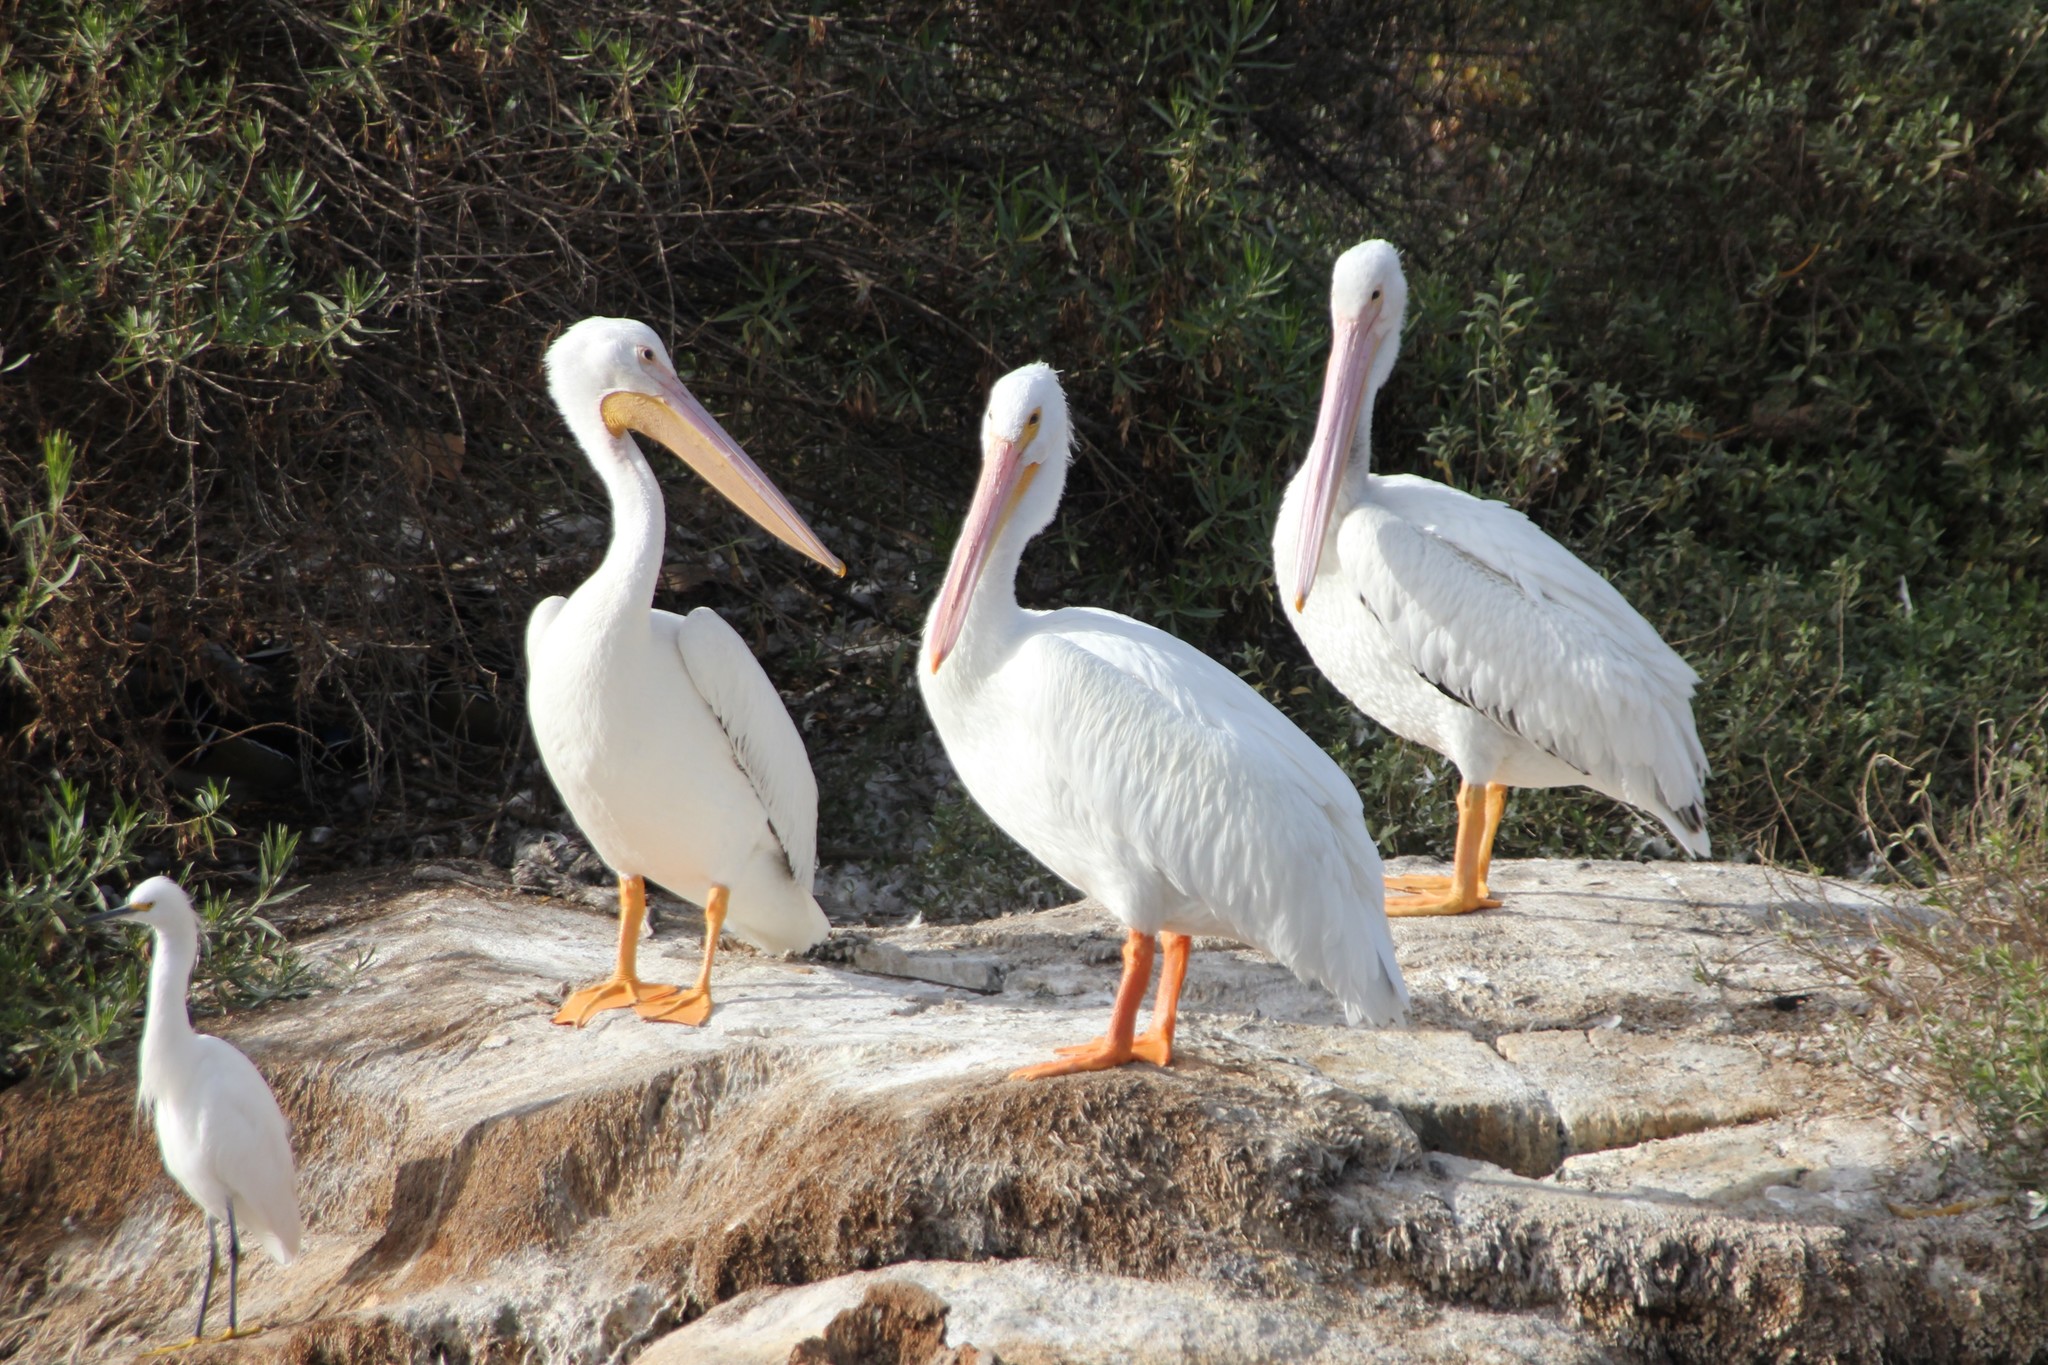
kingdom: Animalia
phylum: Chordata
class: Aves
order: Pelecaniformes
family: Pelecanidae
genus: Pelecanus
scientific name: Pelecanus erythrorhynchos
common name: American white pelican
